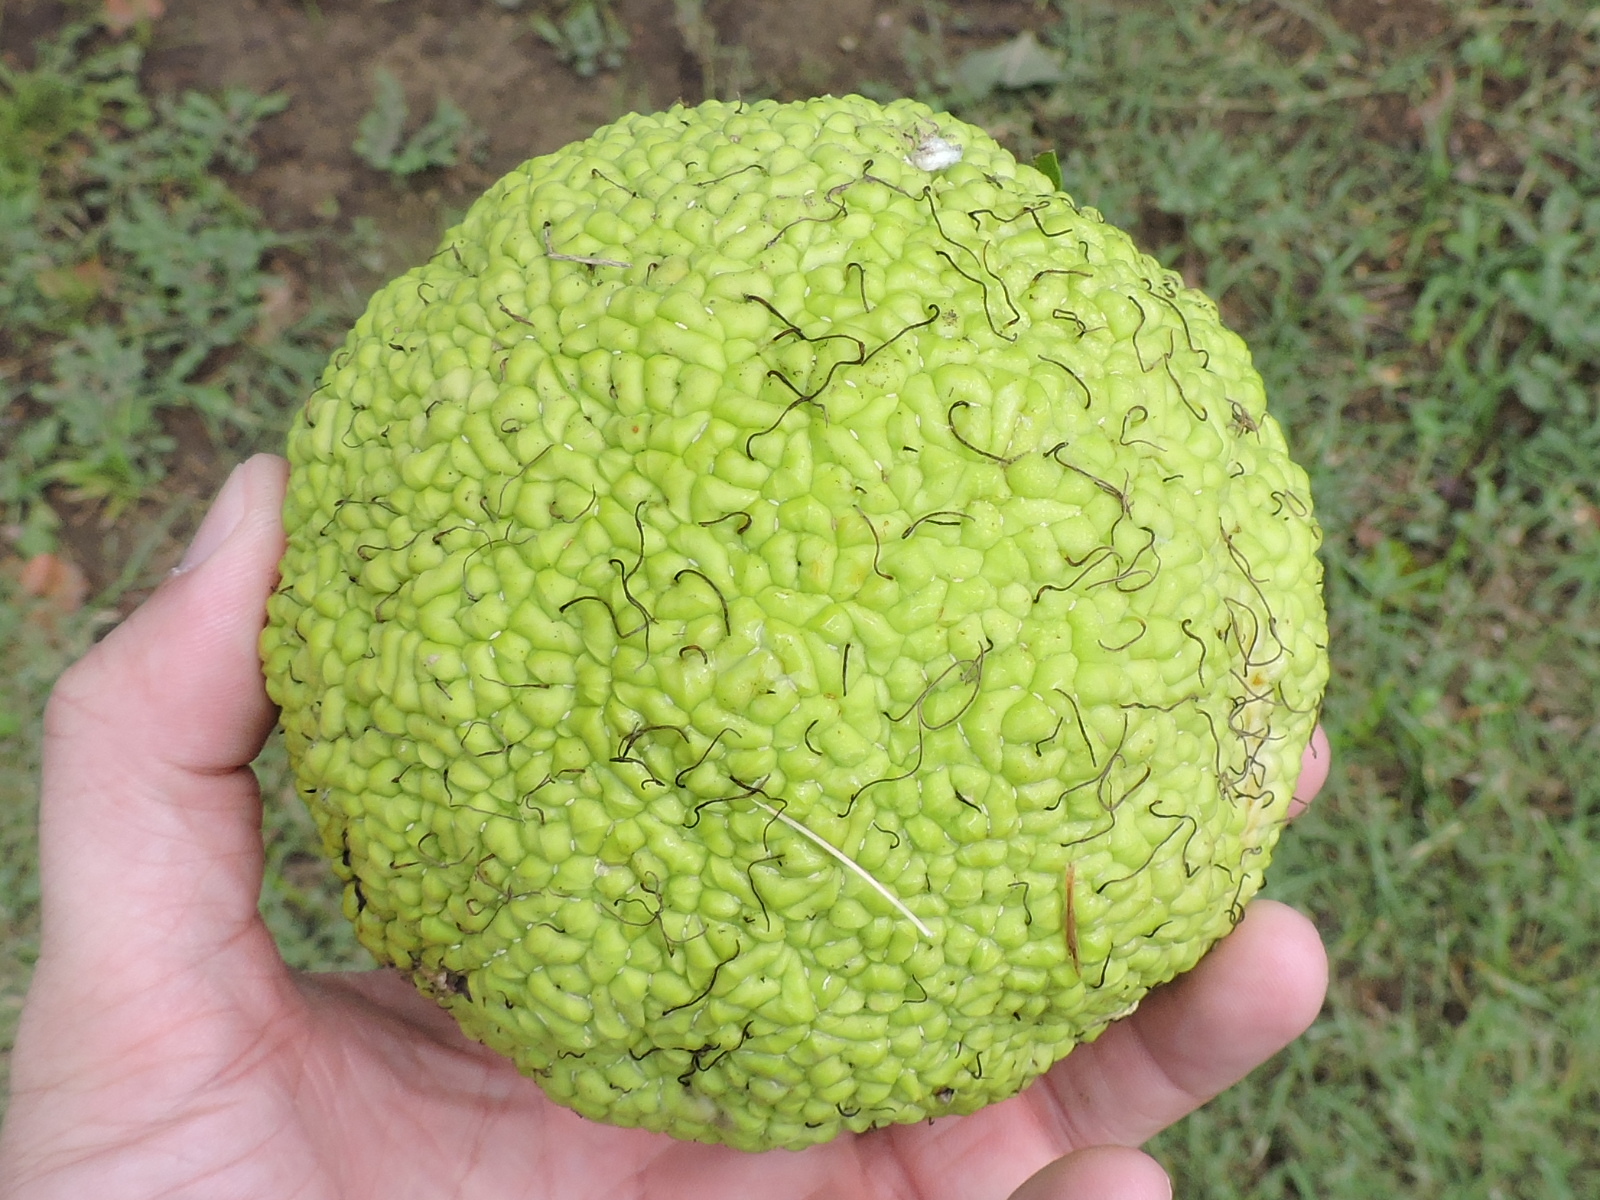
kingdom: Plantae
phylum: Tracheophyta
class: Magnoliopsida
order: Rosales
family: Moraceae
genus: Maclura
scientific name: Maclura pomifera
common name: Osage-orange
